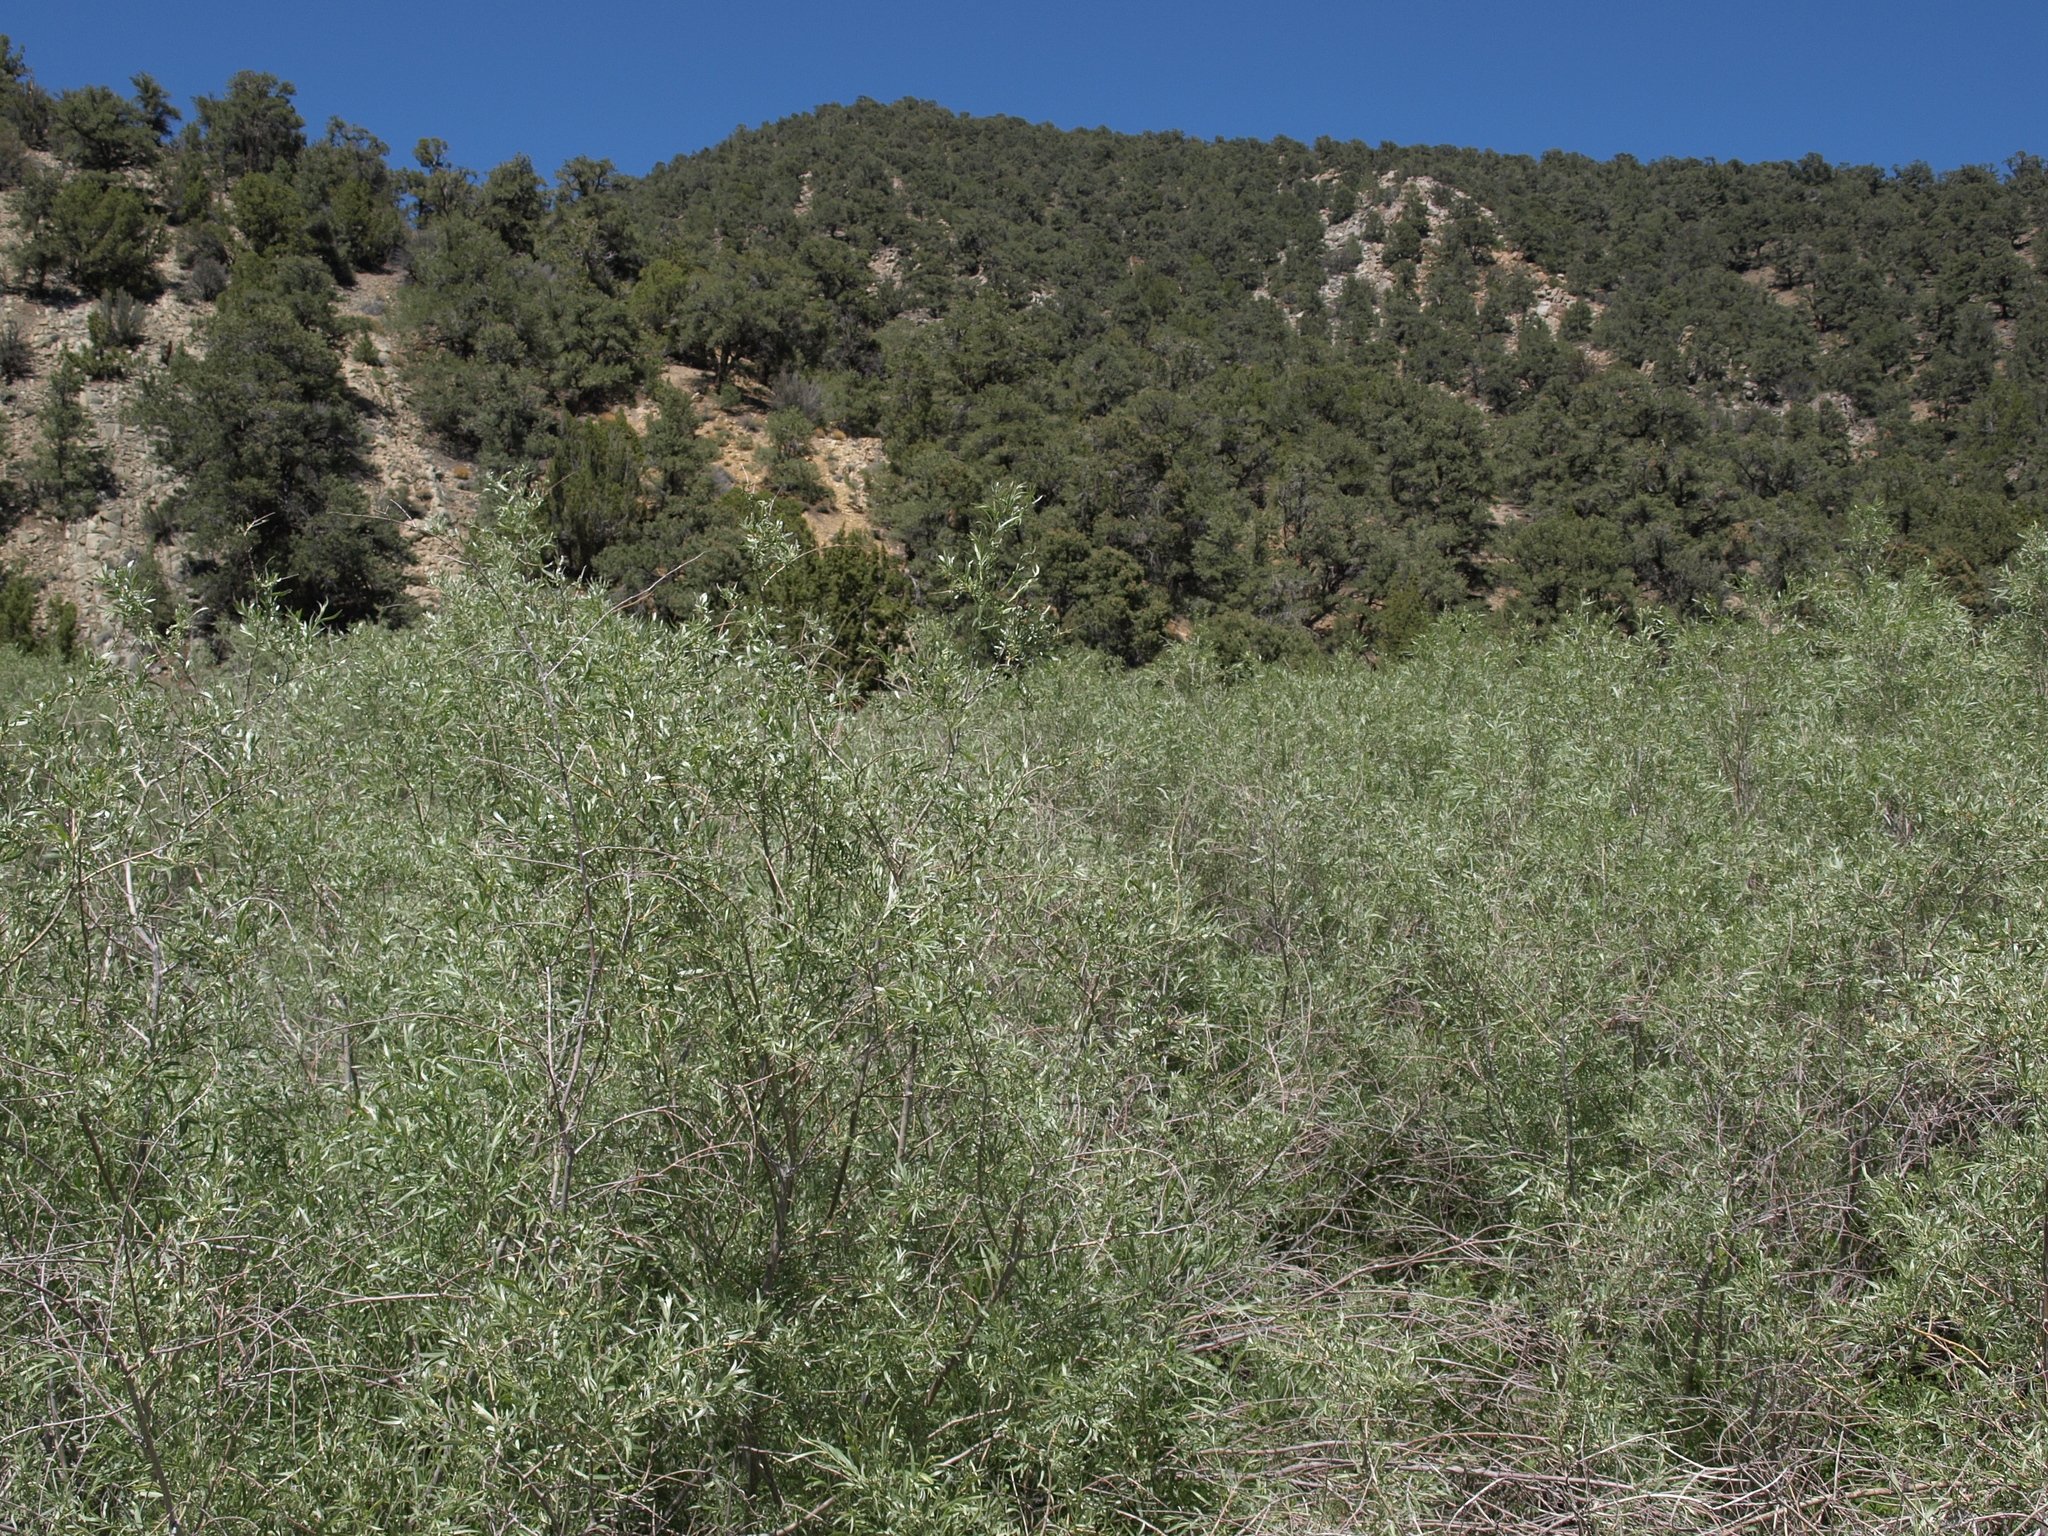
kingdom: Plantae
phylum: Tracheophyta
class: Magnoliopsida
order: Malpighiales
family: Salicaceae
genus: Salix
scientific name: Salix exigua
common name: Coyote willow
